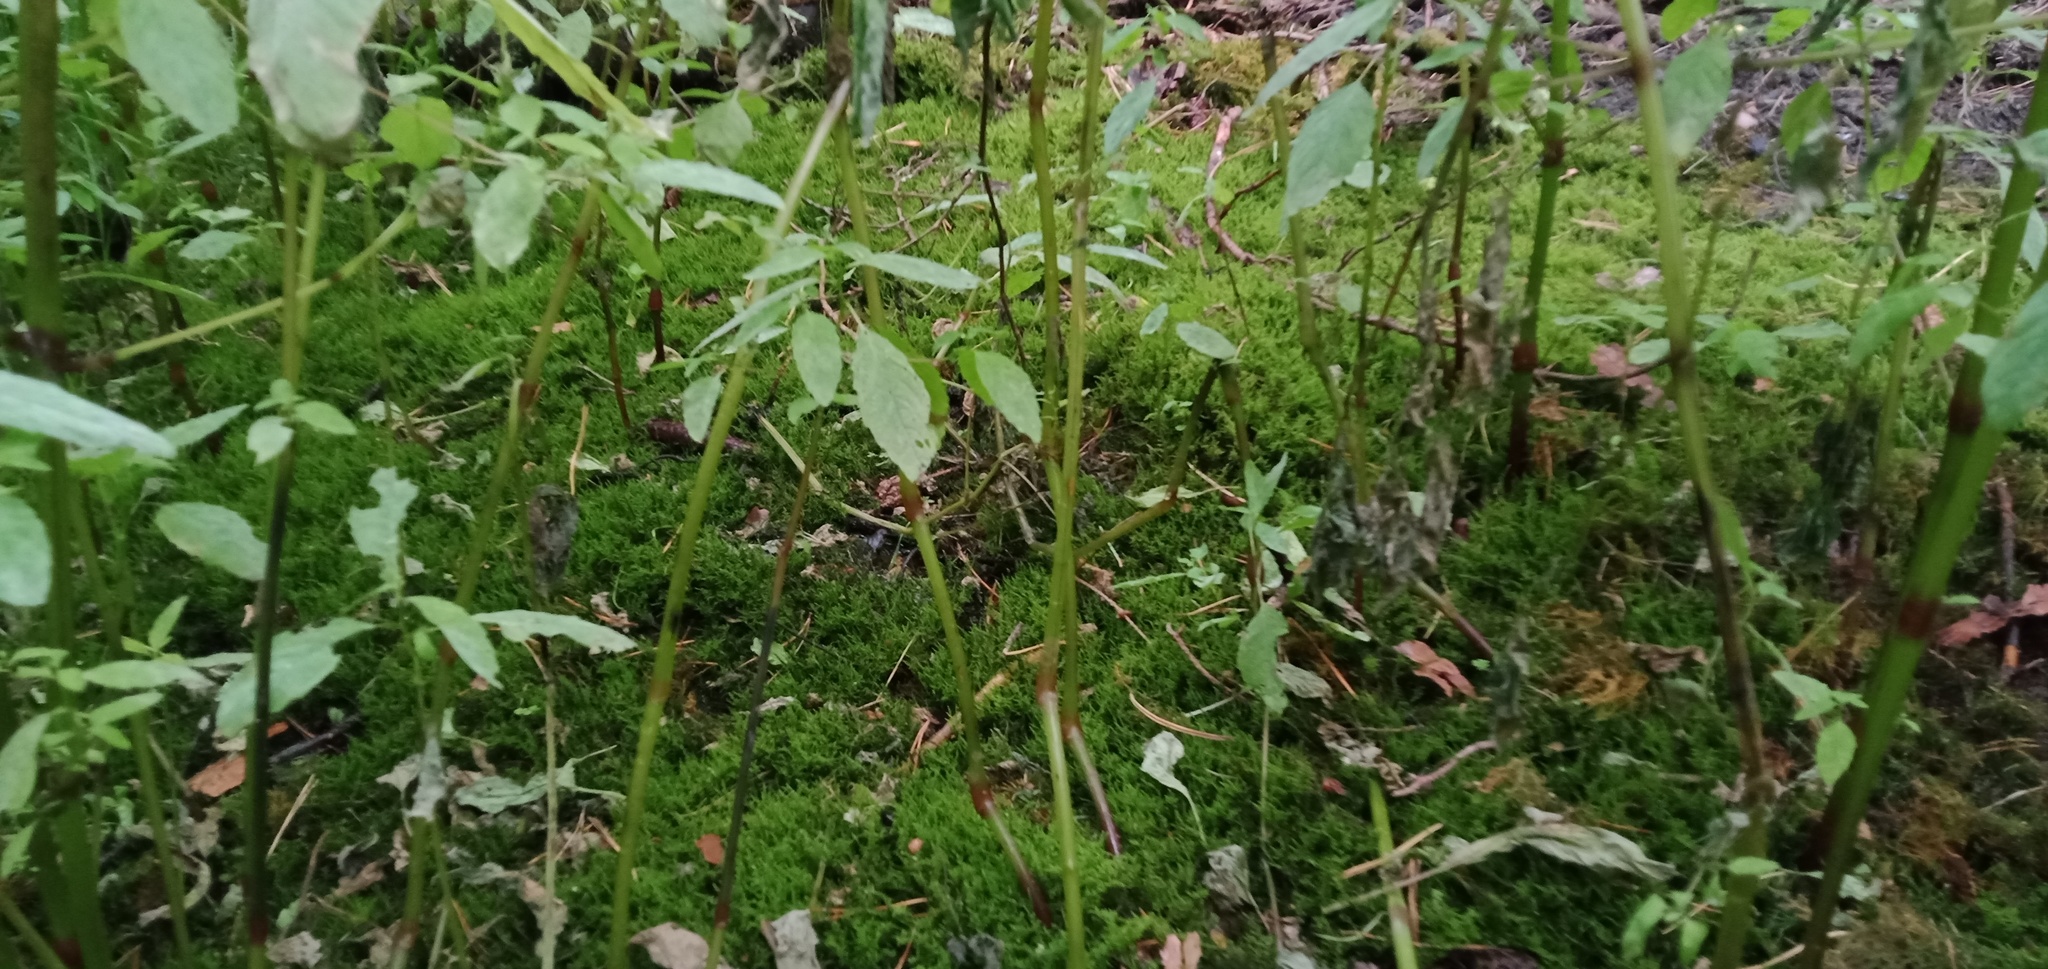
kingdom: Plantae
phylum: Tracheophyta
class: Magnoliopsida
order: Ericales
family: Balsaminaceae
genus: Impatiens
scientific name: Impatiens noli-tangere
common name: Touch-me-not balsam
